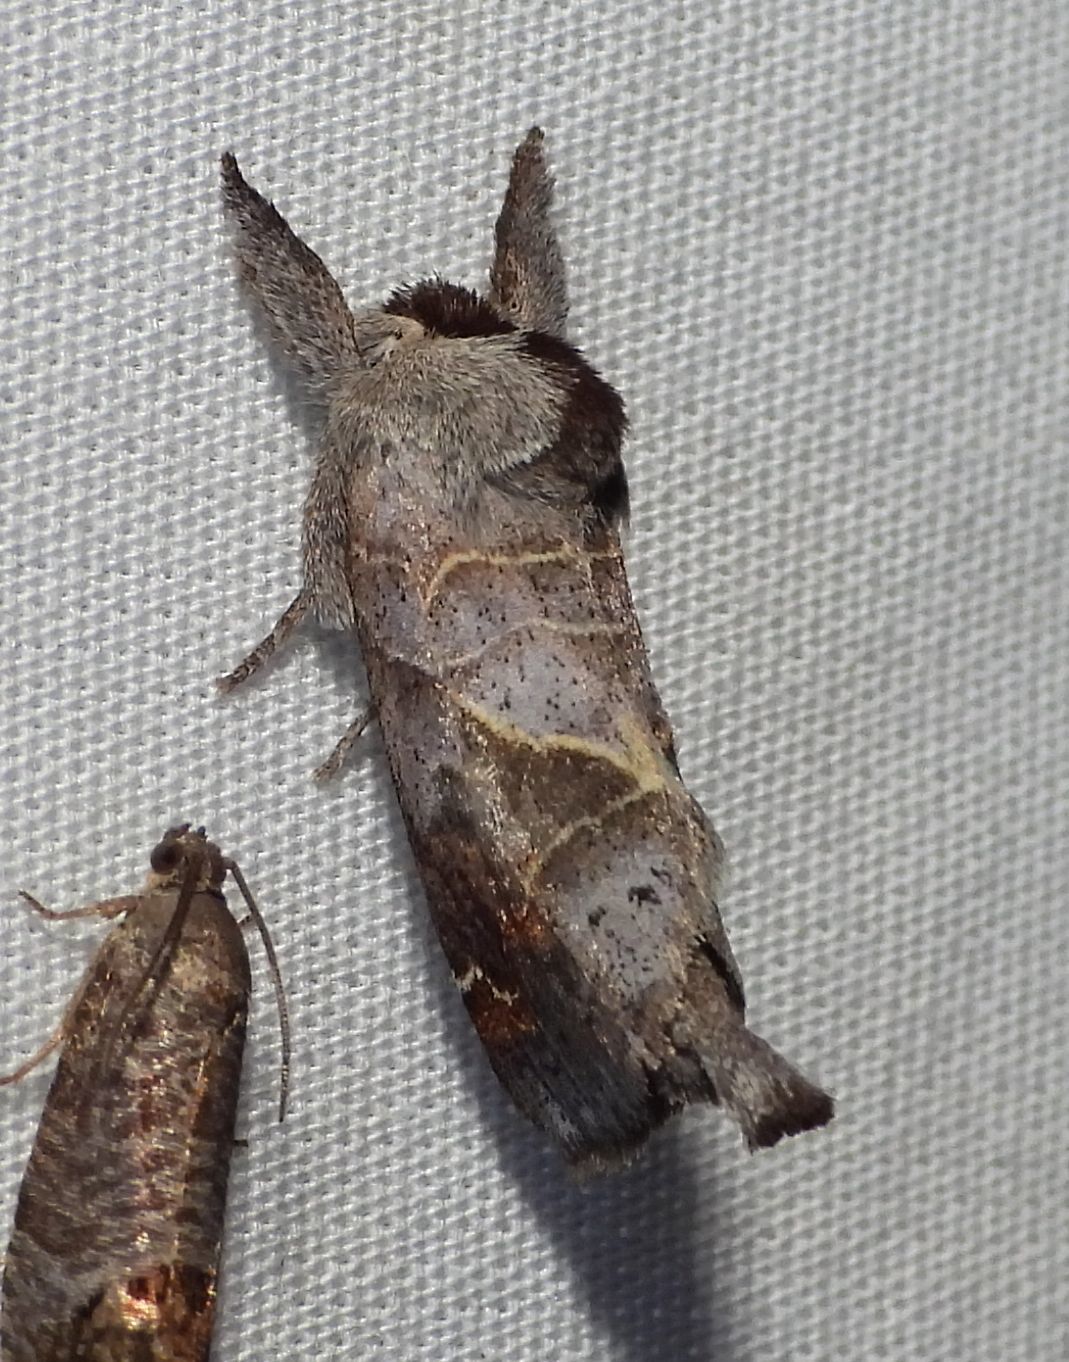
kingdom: Animalia
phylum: Arthropoda
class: Insecta
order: Lepidoptera
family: Notodontidae
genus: Clostera
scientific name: Clostera apicalis
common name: Apical prominent
